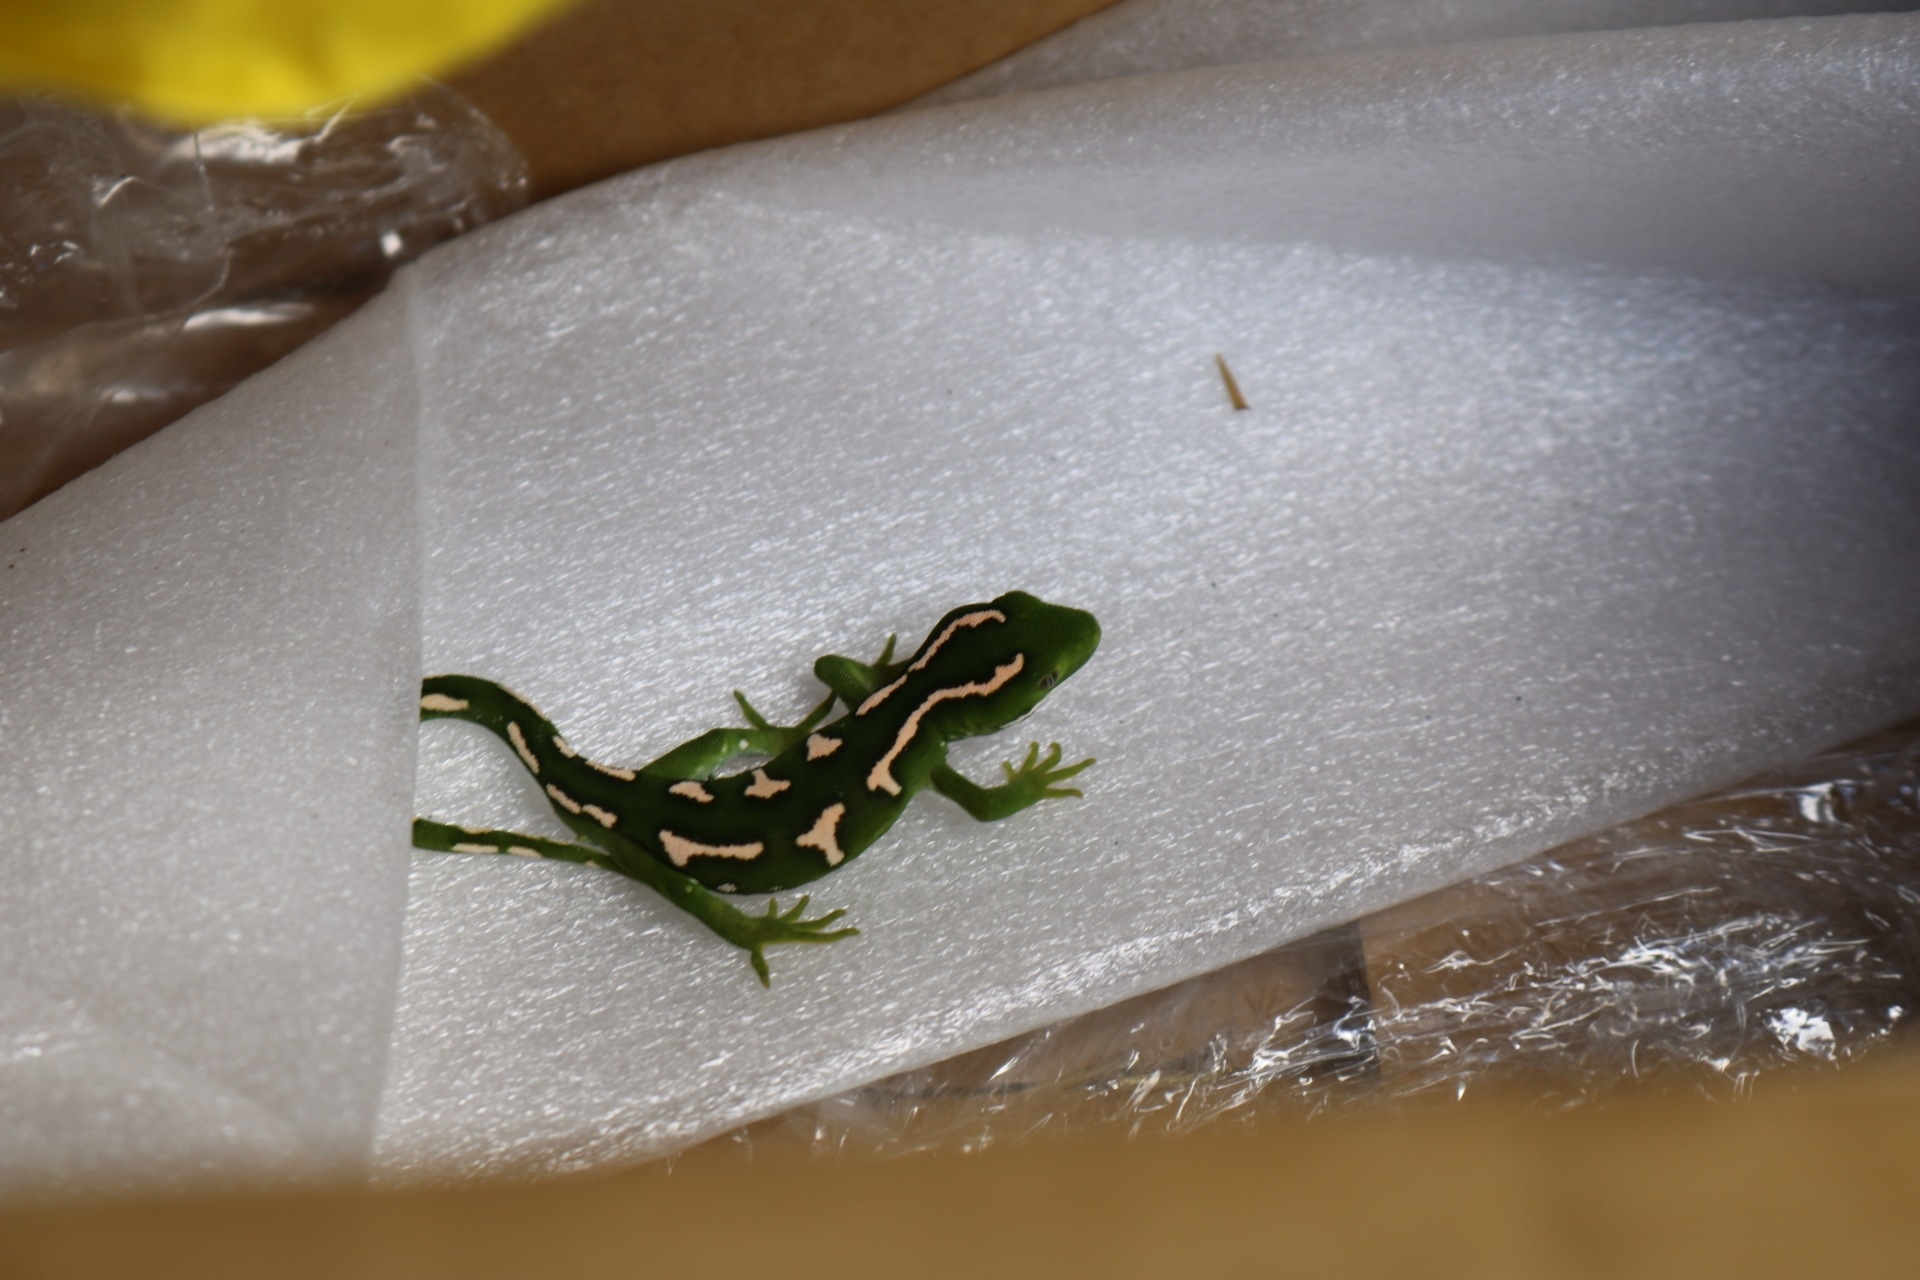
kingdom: Animalia
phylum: Chordata
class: Squamata
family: Diplodactylidae
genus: Naultinus
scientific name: Naultinus elegans
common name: Auckland green gecko
